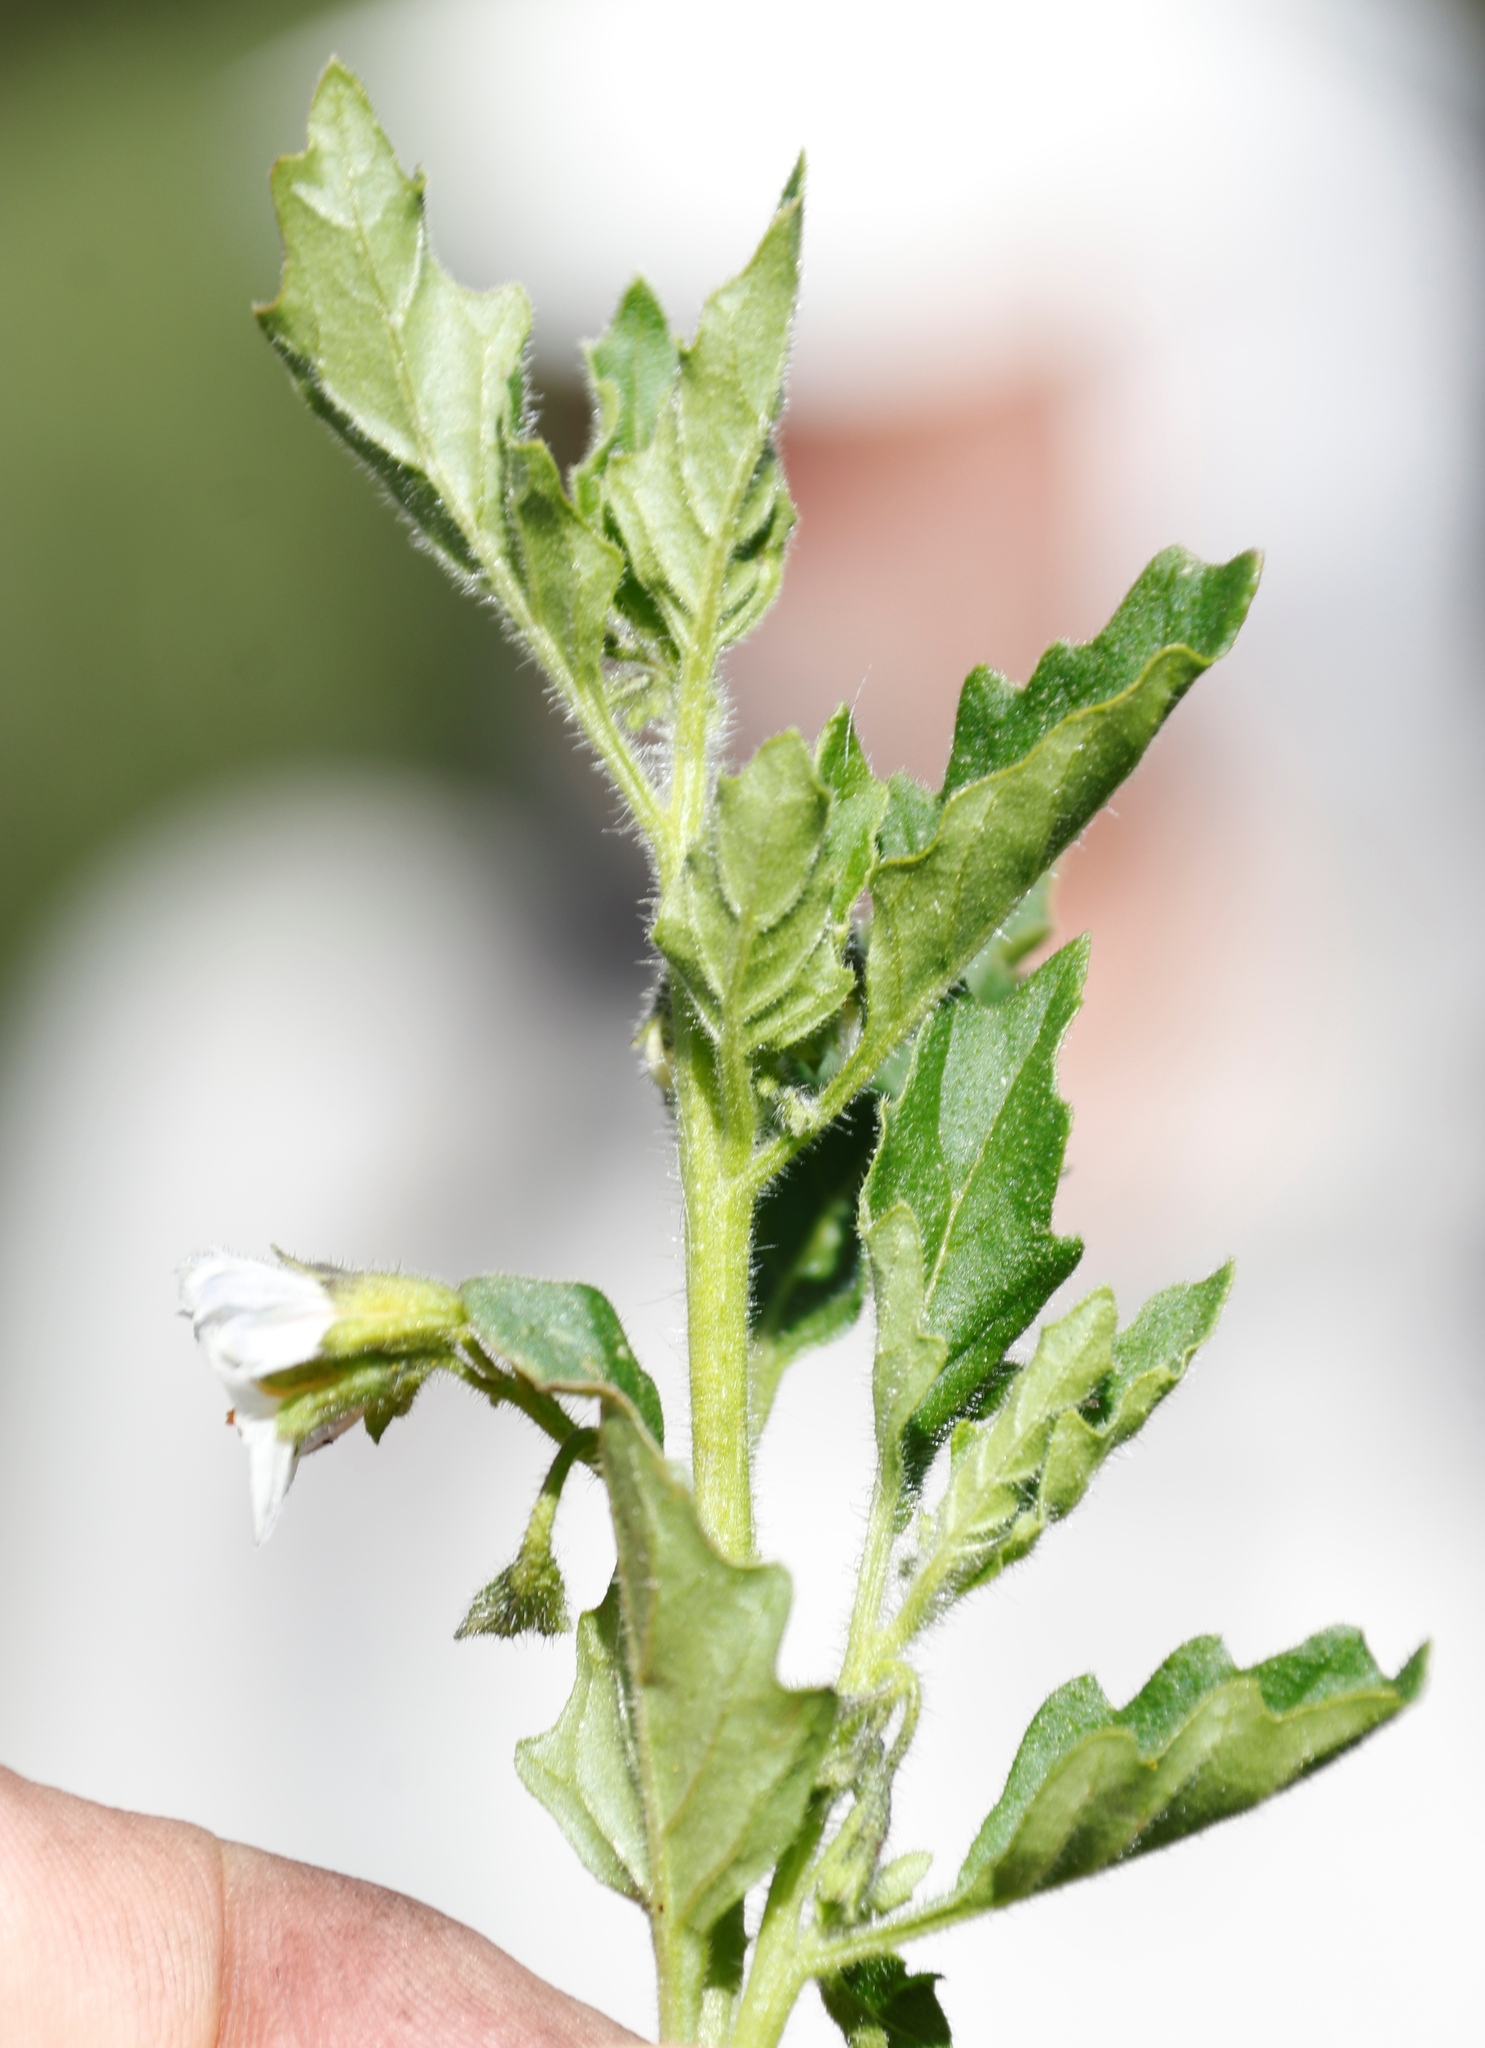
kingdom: Plantae
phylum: Tracheophyta
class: Magnoliopsida
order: Solanales
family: Solanaceae
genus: Solanum
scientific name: Solanum retroflexum
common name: Wonderberry
